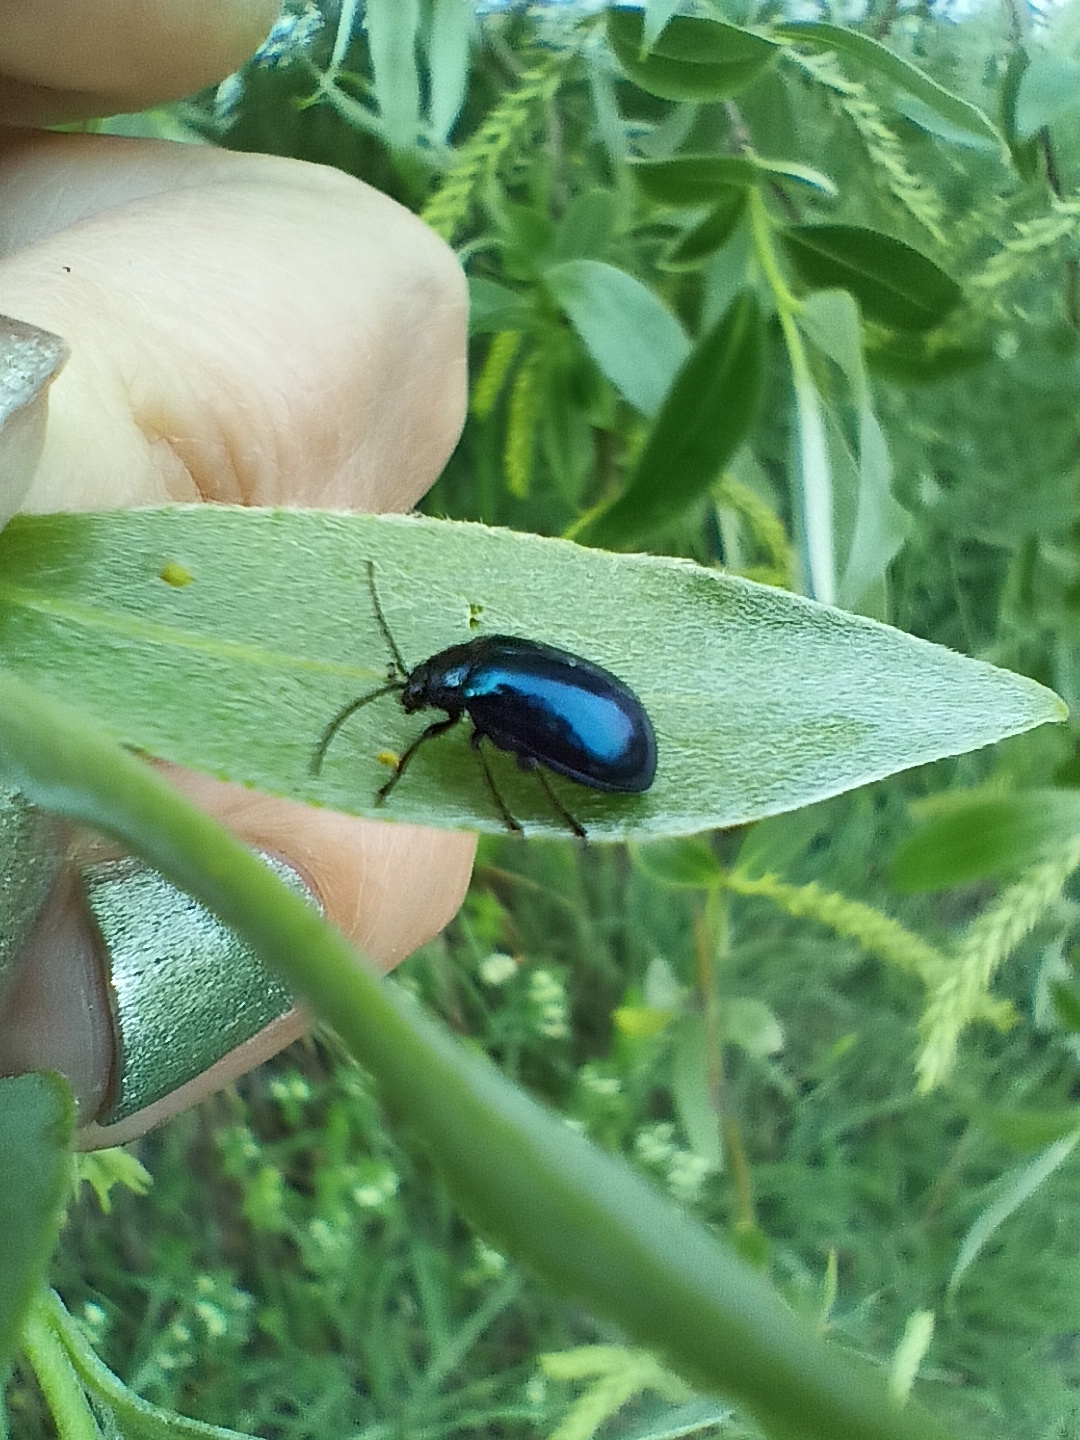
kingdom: Animalia
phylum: Arthropoda
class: Insecta
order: Coleoptera
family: Chrysomelidae
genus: Agelastica
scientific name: Agelastica alni
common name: Alder leaf beetle
